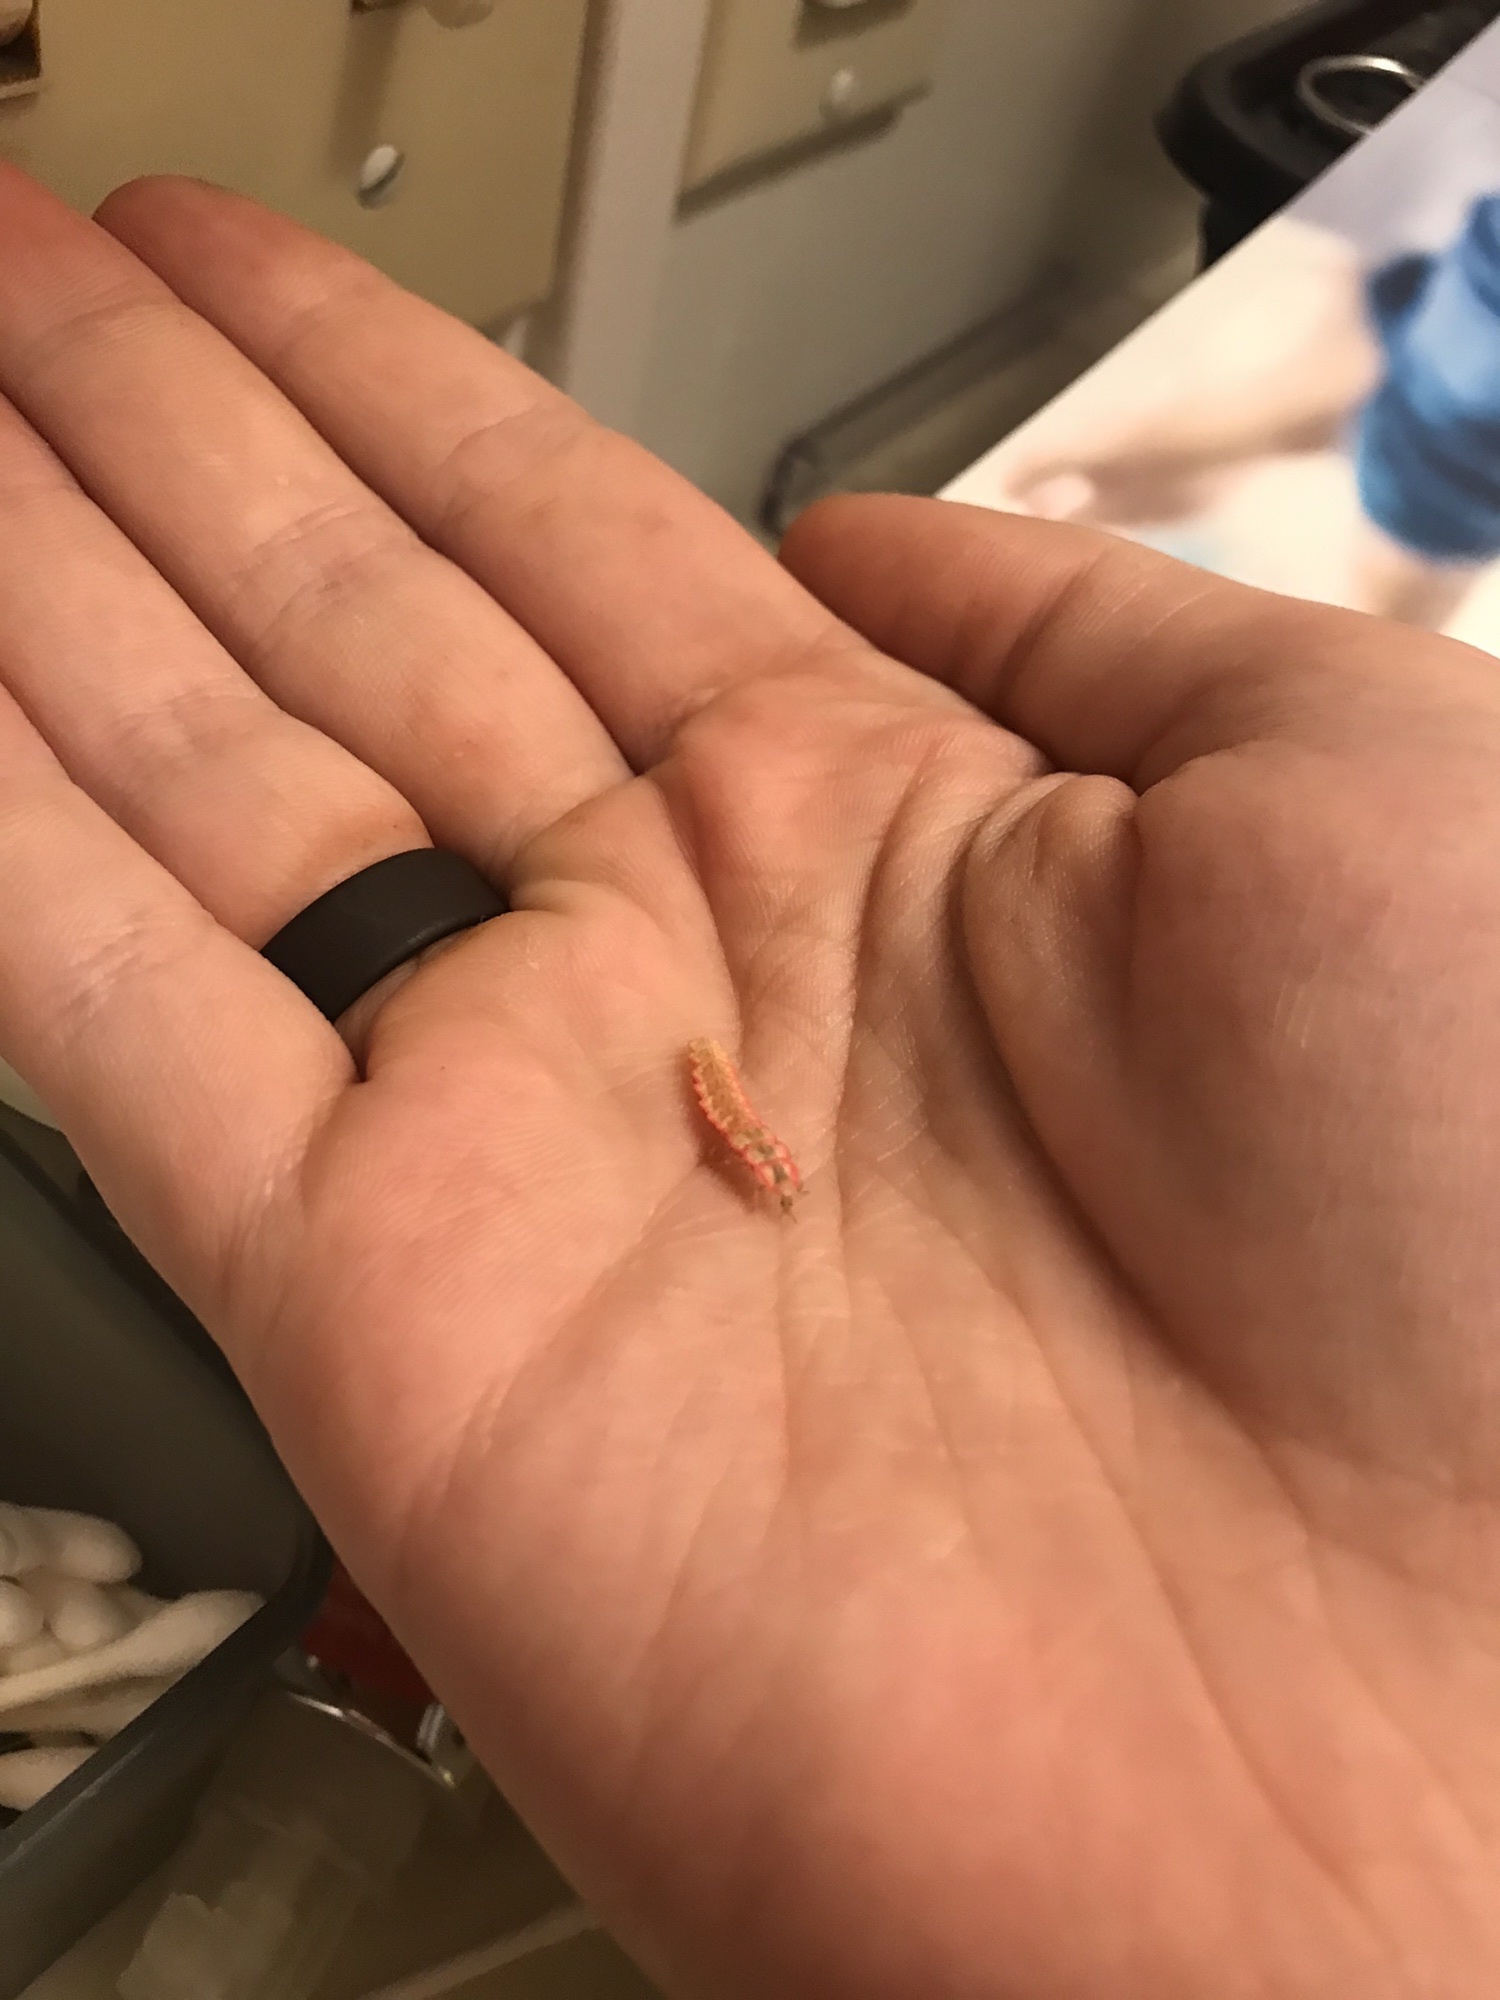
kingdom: Animalia
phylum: Arthropoda
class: Insecta
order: Coleoptera
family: Lampyridae
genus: Microphotus
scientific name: Microphotus angustus
